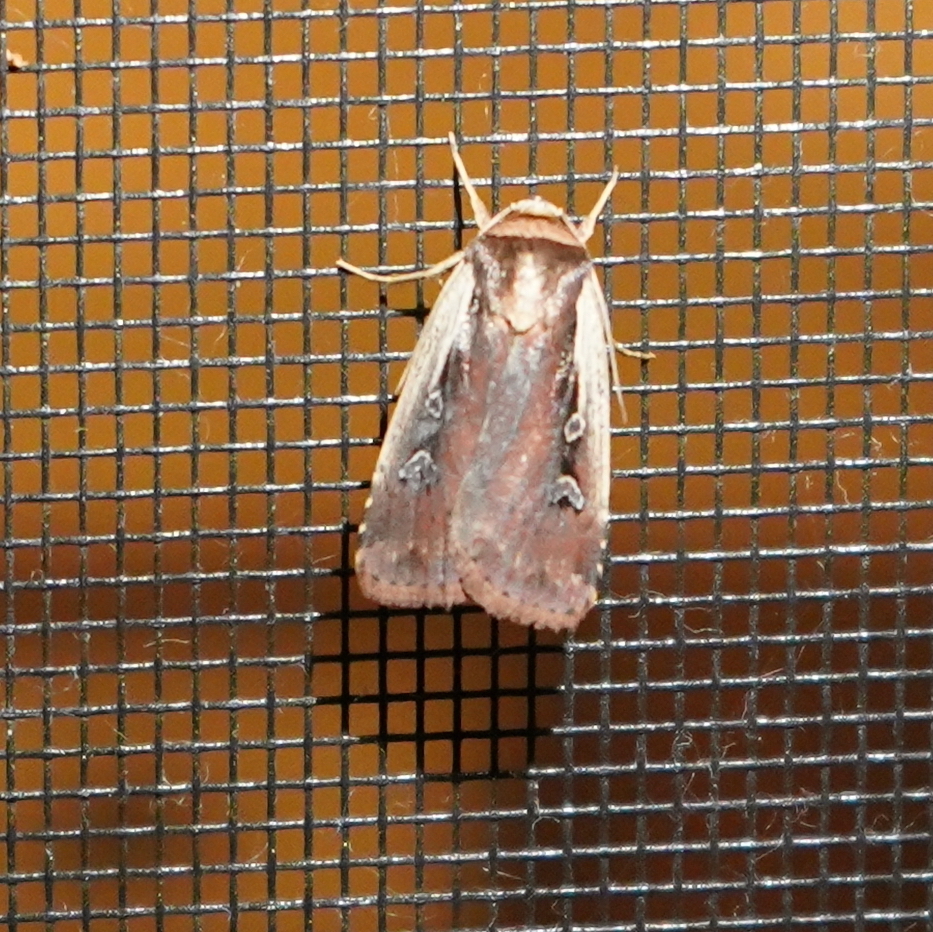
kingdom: Animalia
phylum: Arthropoda
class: Insecta
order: Lepidoptera
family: Noctuidae
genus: Ochropleura
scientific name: Ochropleura implecta
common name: Flame-shouldered dart
